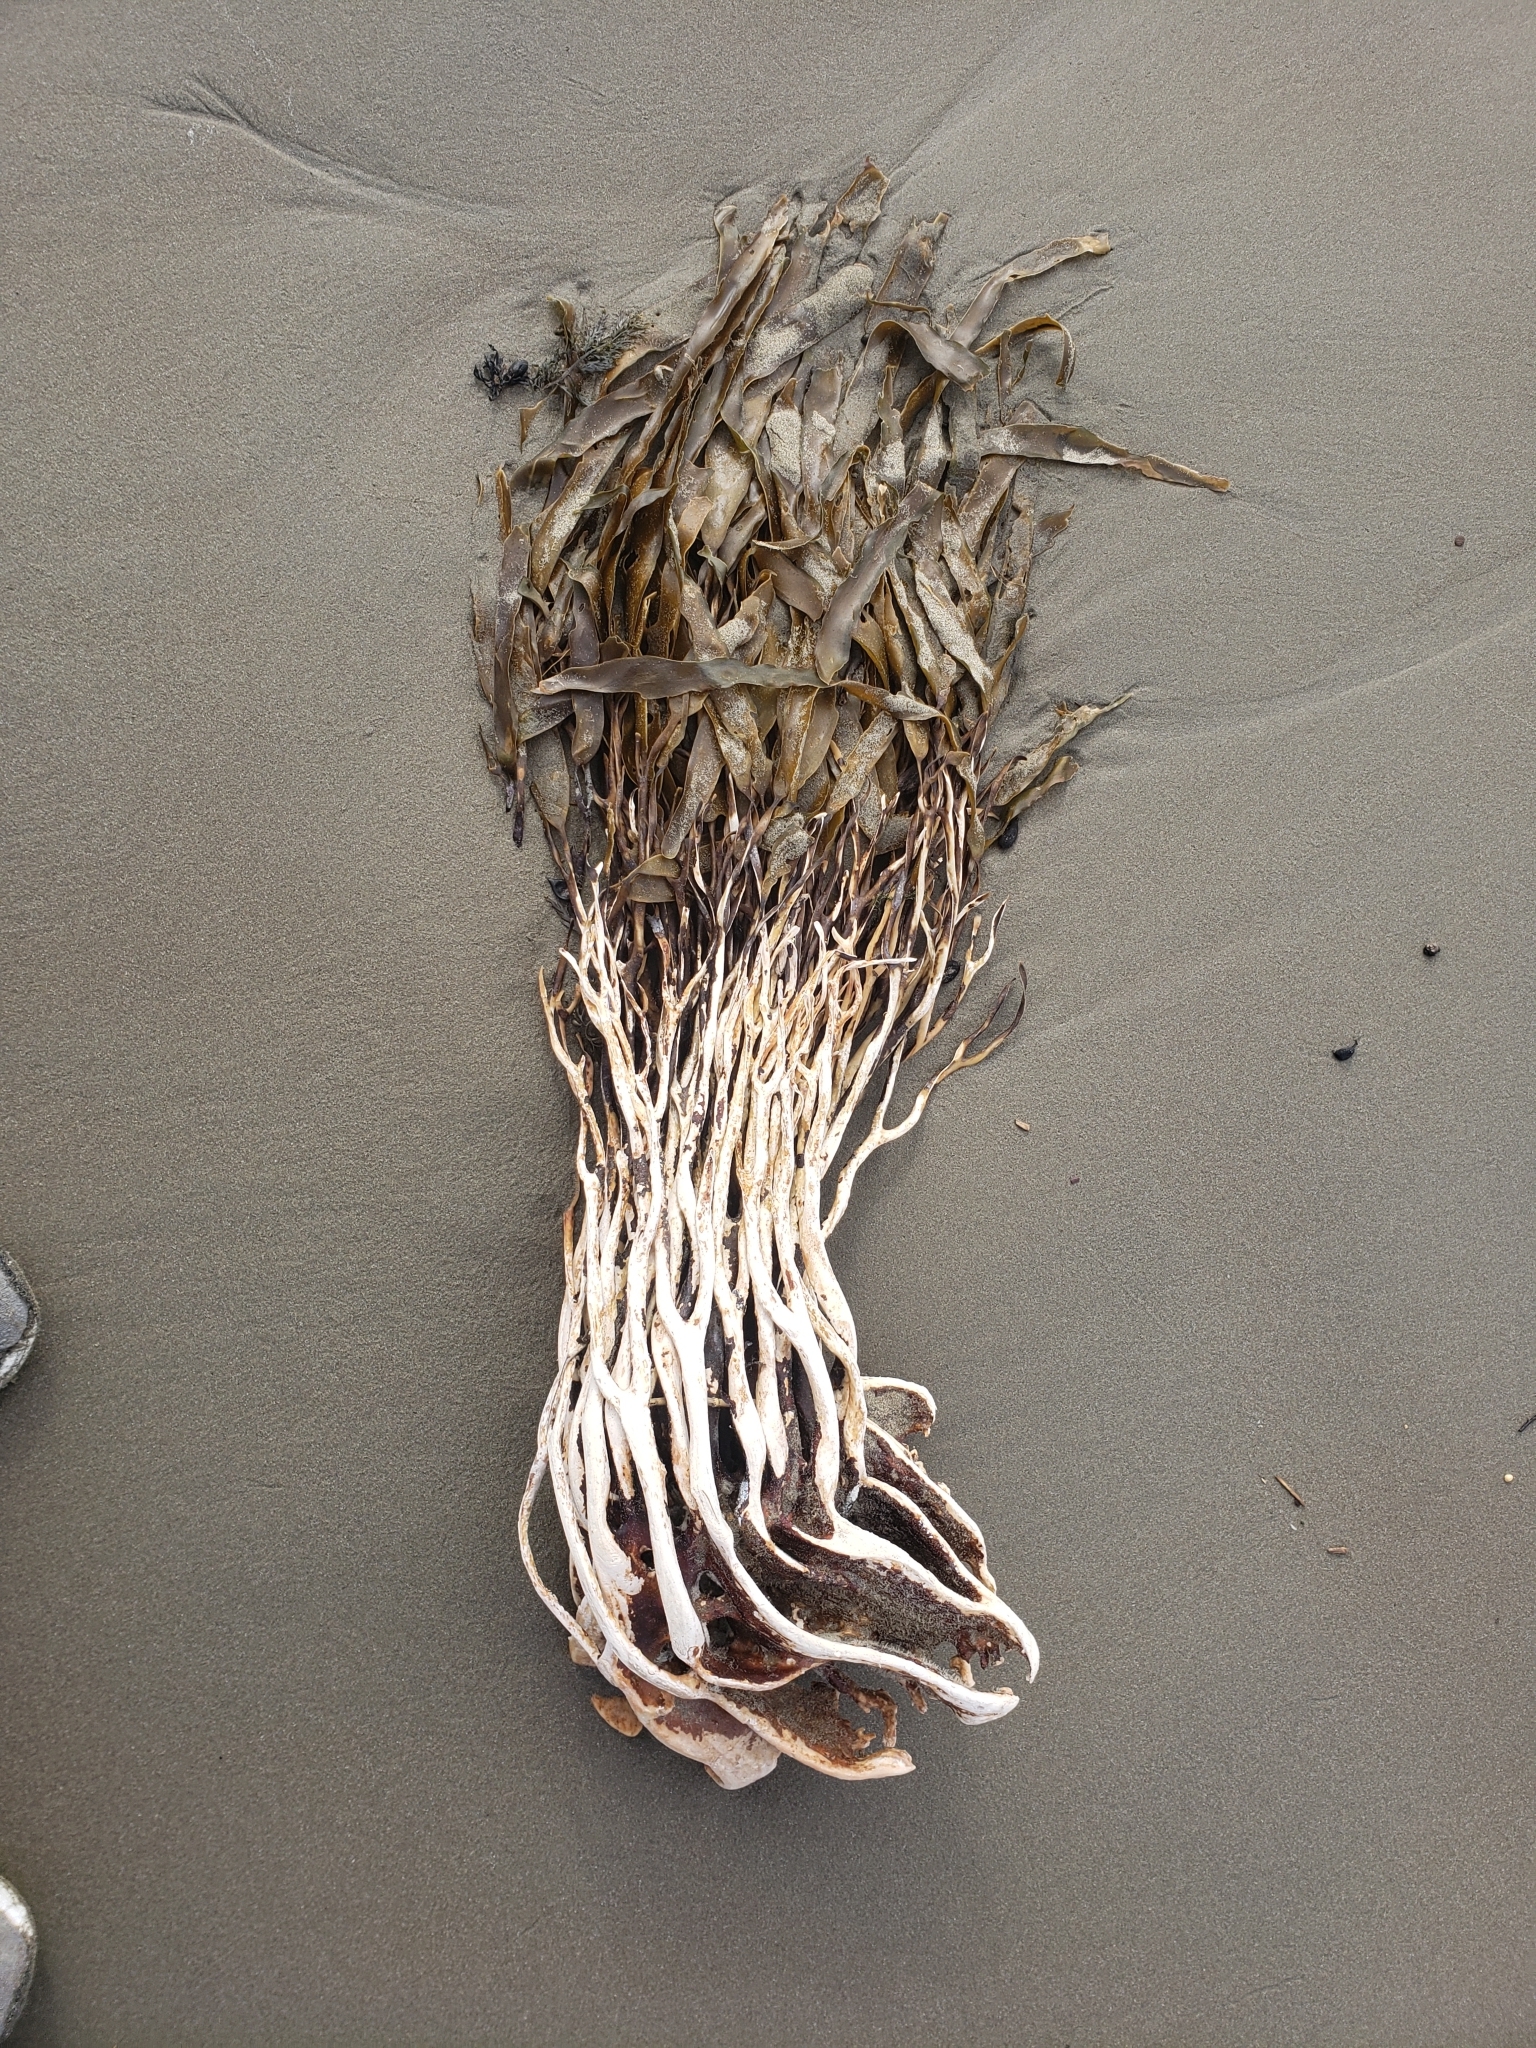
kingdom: Chromista
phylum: Ochrophyta
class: Phaeophyceae
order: Laminariales
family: Lessoniaceae
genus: Lessonia
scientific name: Lessonia variegata
